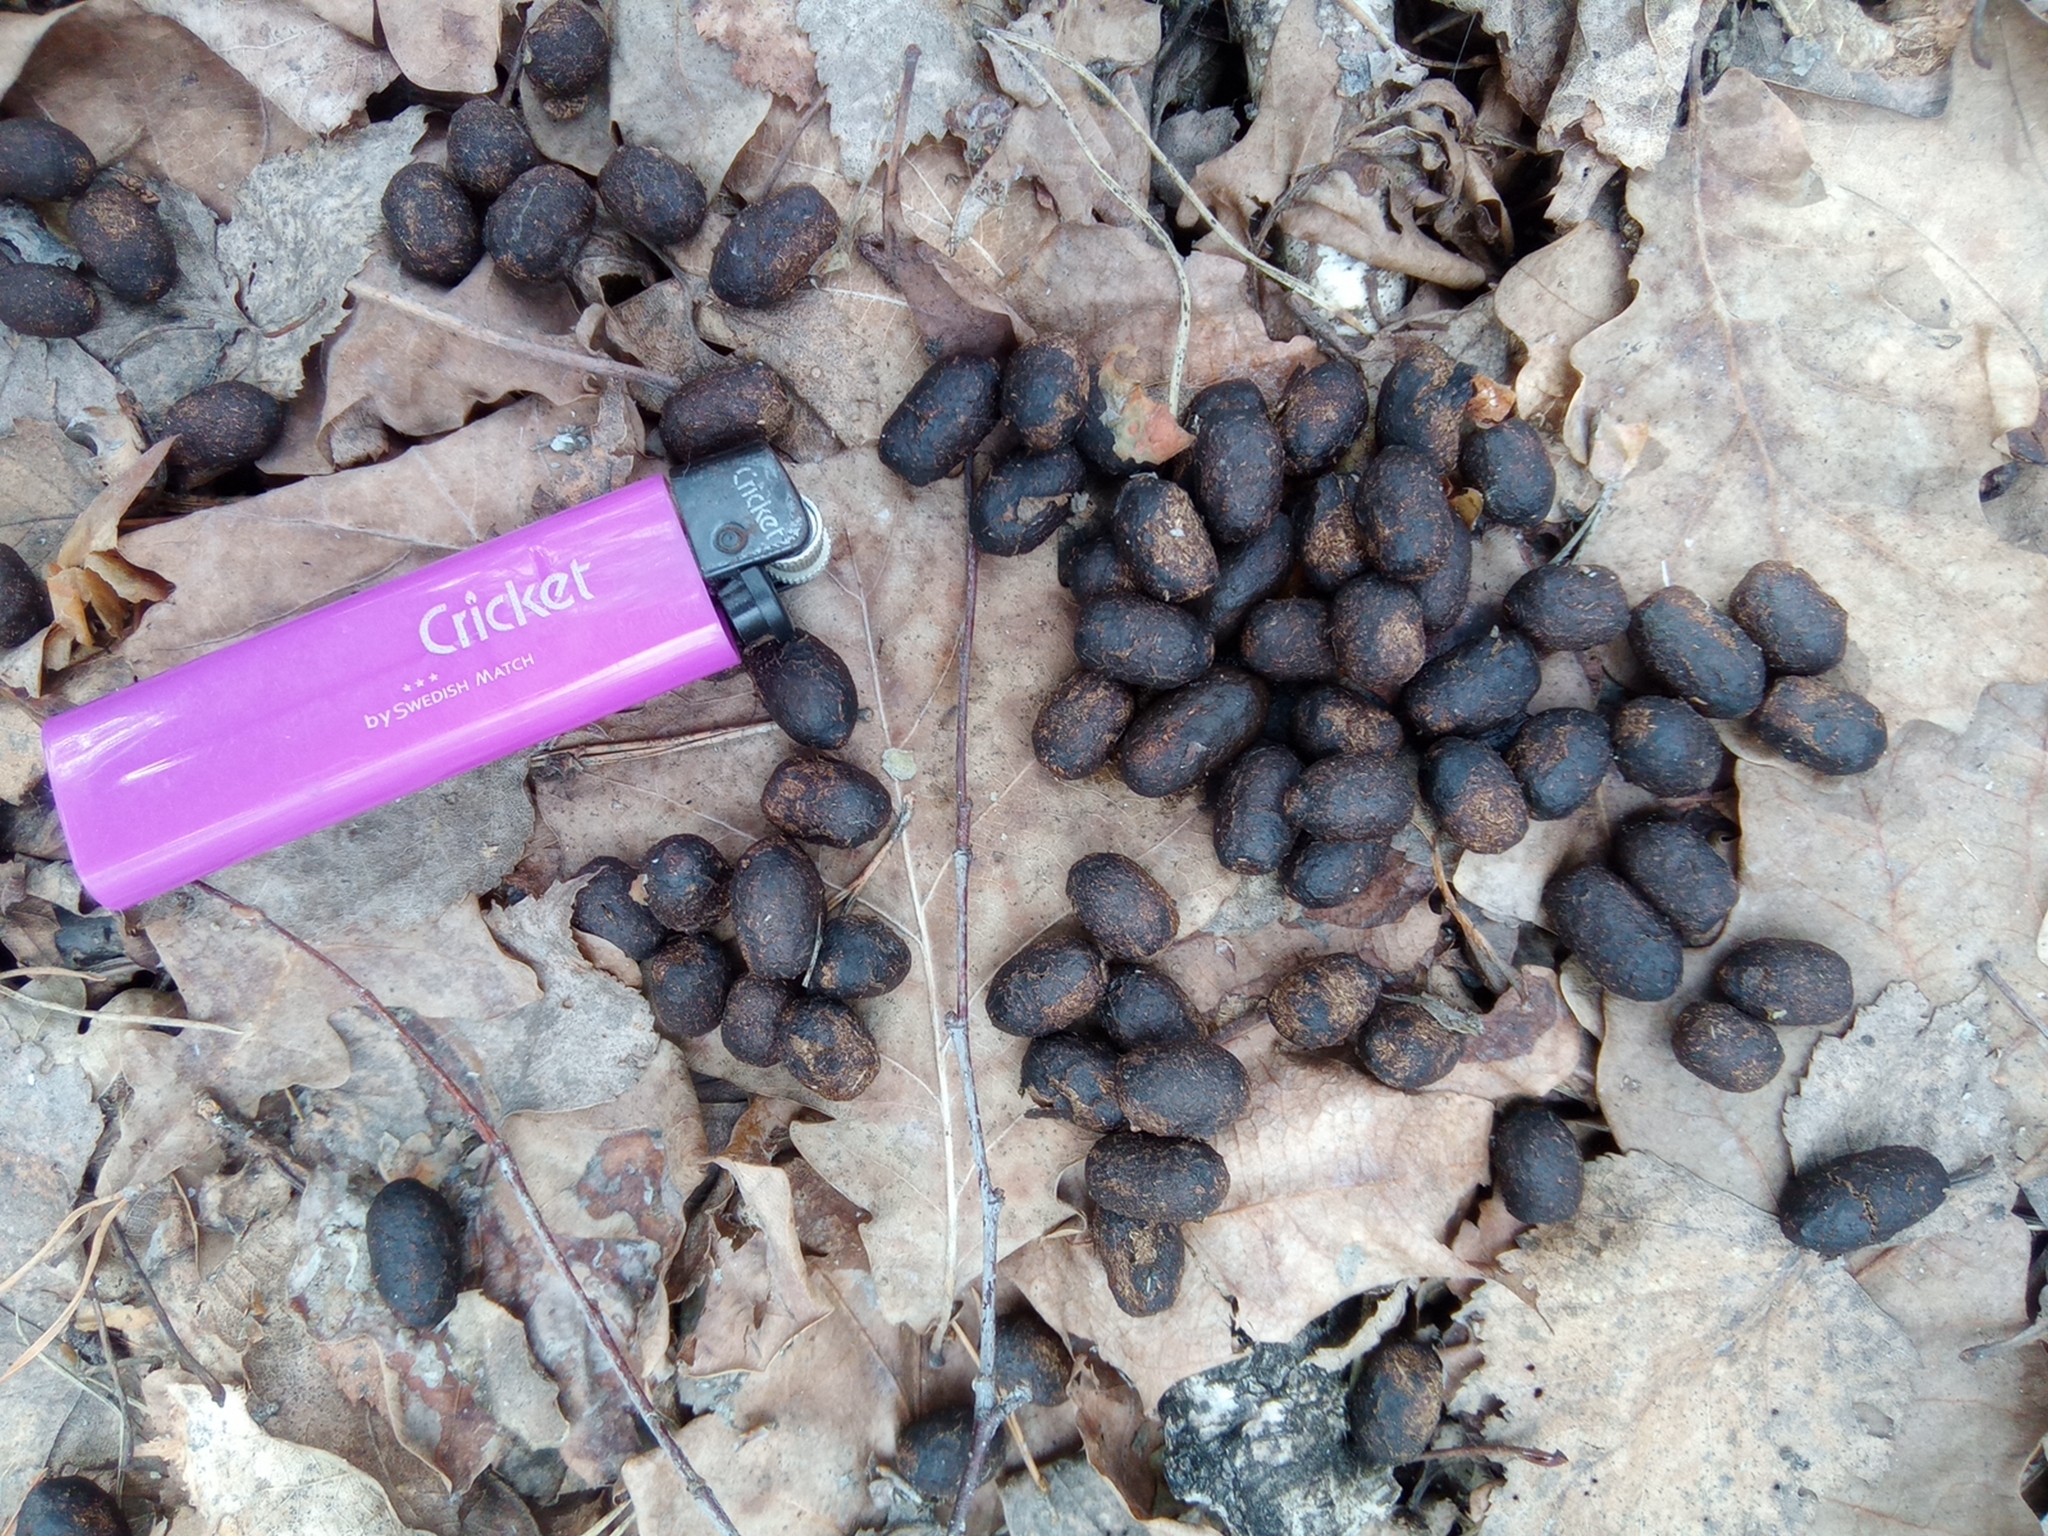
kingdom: Animalia
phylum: Chordata
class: Mammalia
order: Artiodactyla
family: Cervidae
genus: Capreolus
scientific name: Capreolus pygargus
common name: Siberian roe
